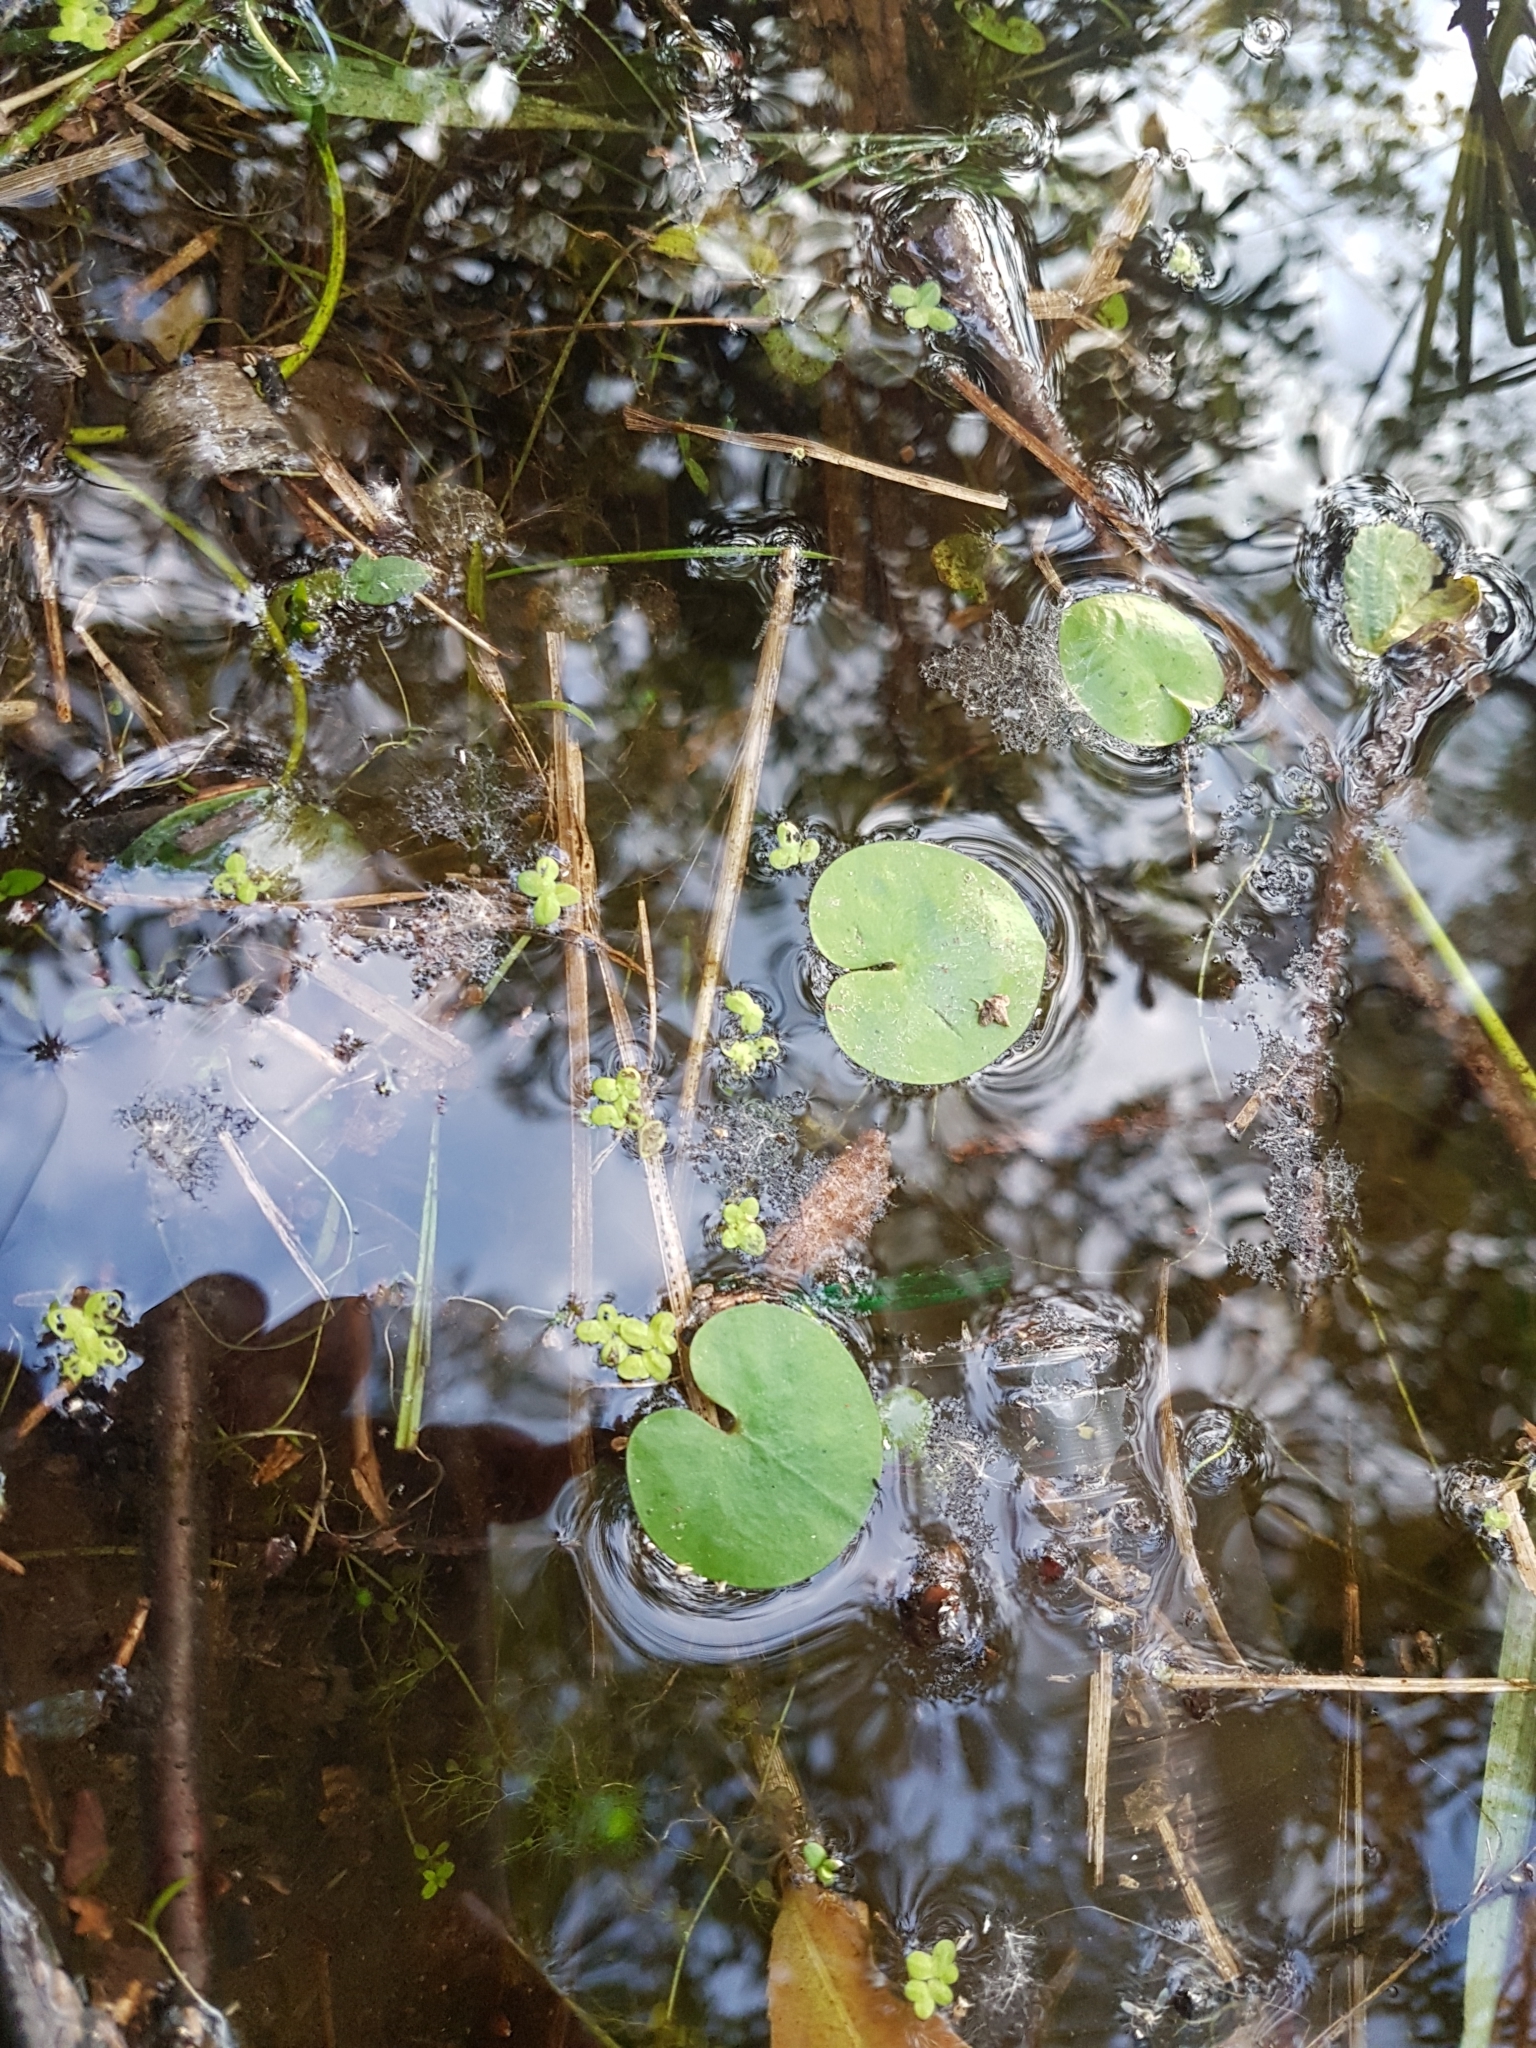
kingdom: Plantae
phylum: Tracheophyta
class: Liliopsida
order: Alismatales
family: Hydrocharitaceae
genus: Hydrocharis
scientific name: Hydrocharis morsus-ranae
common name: Frogbit
